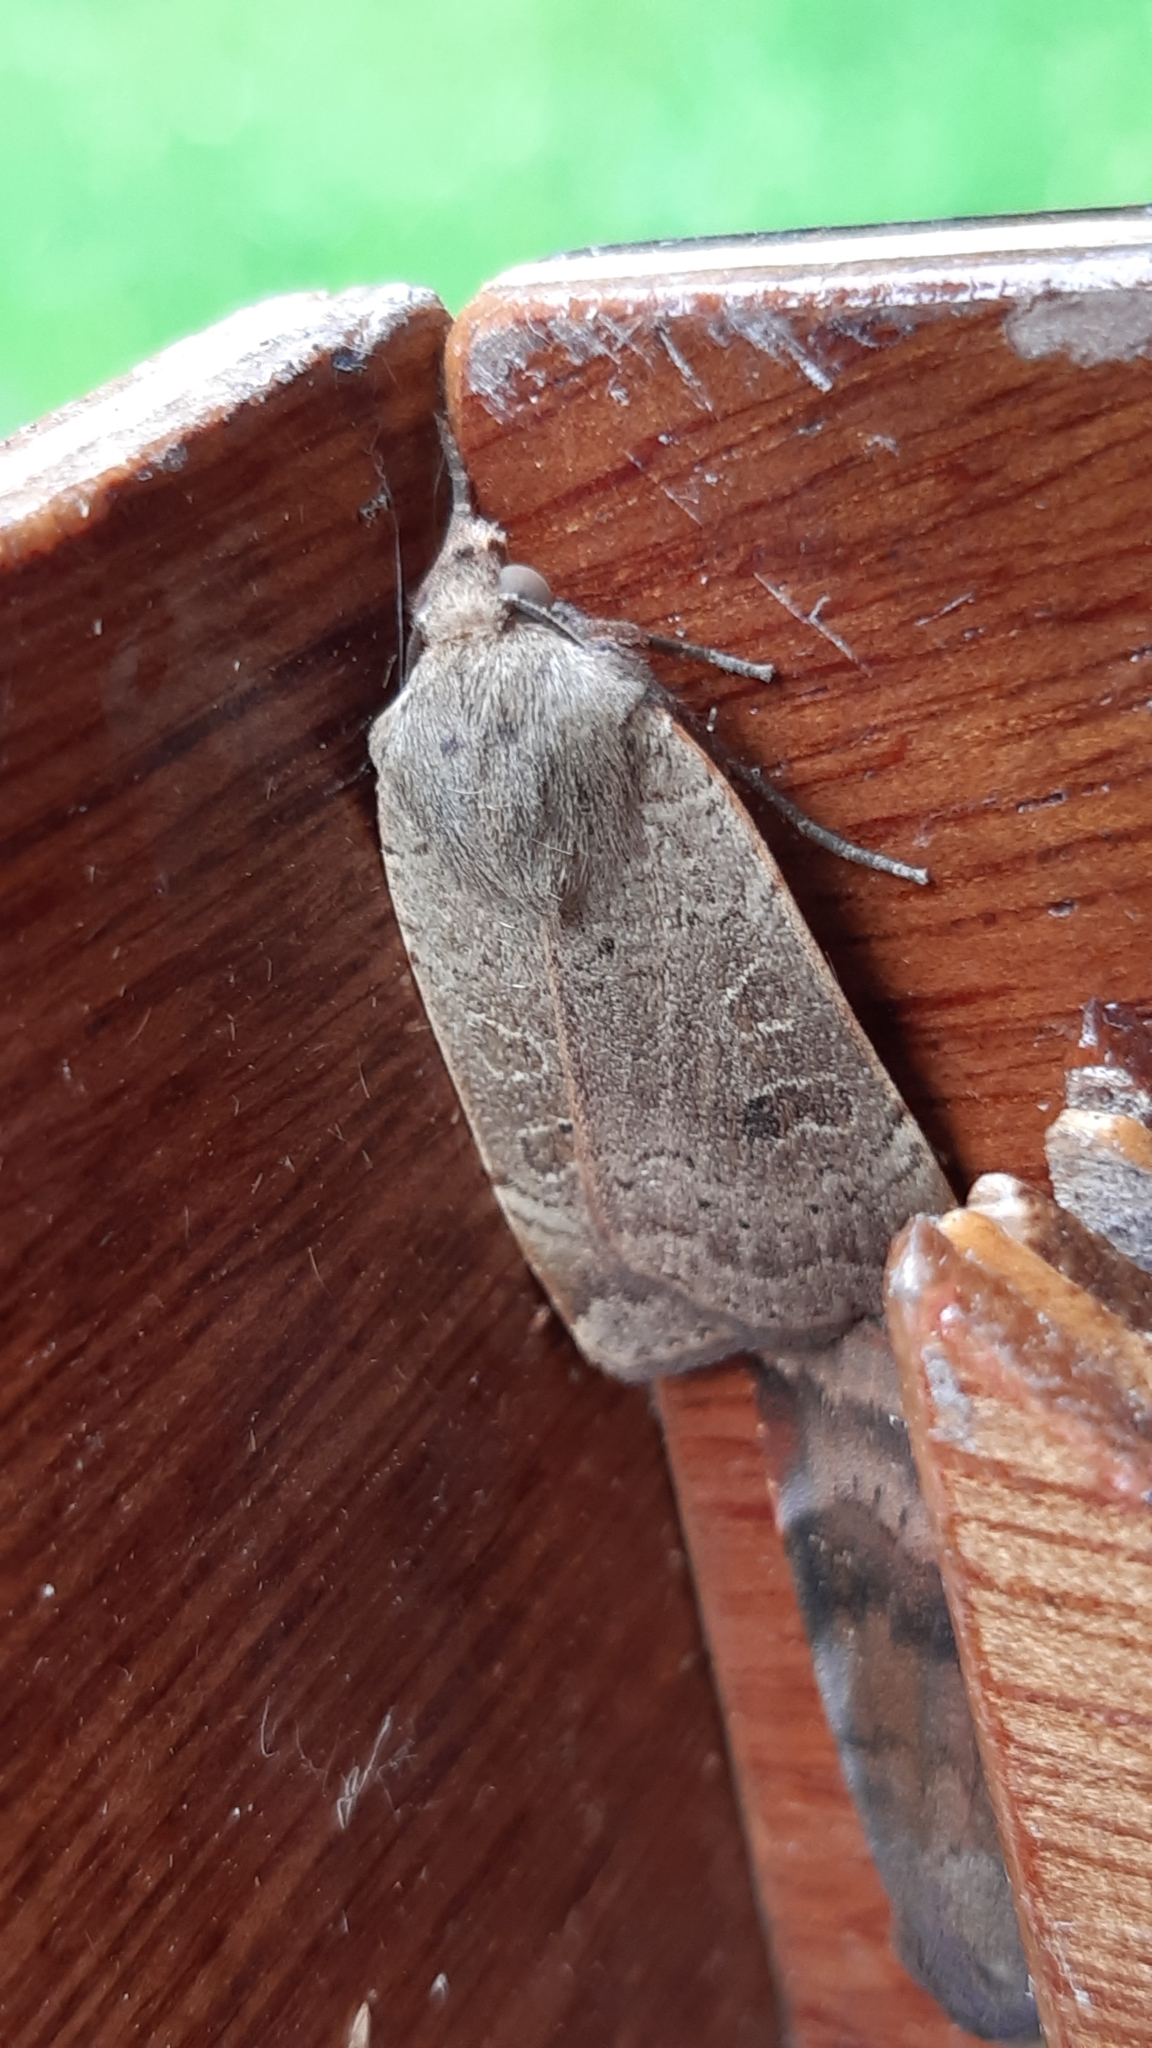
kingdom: Animalia
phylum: Arthropoda
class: Insecta
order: Lepidoptera
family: Noctuidae
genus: Noctua
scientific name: Noctua comes
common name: Lesser yellow underwing
